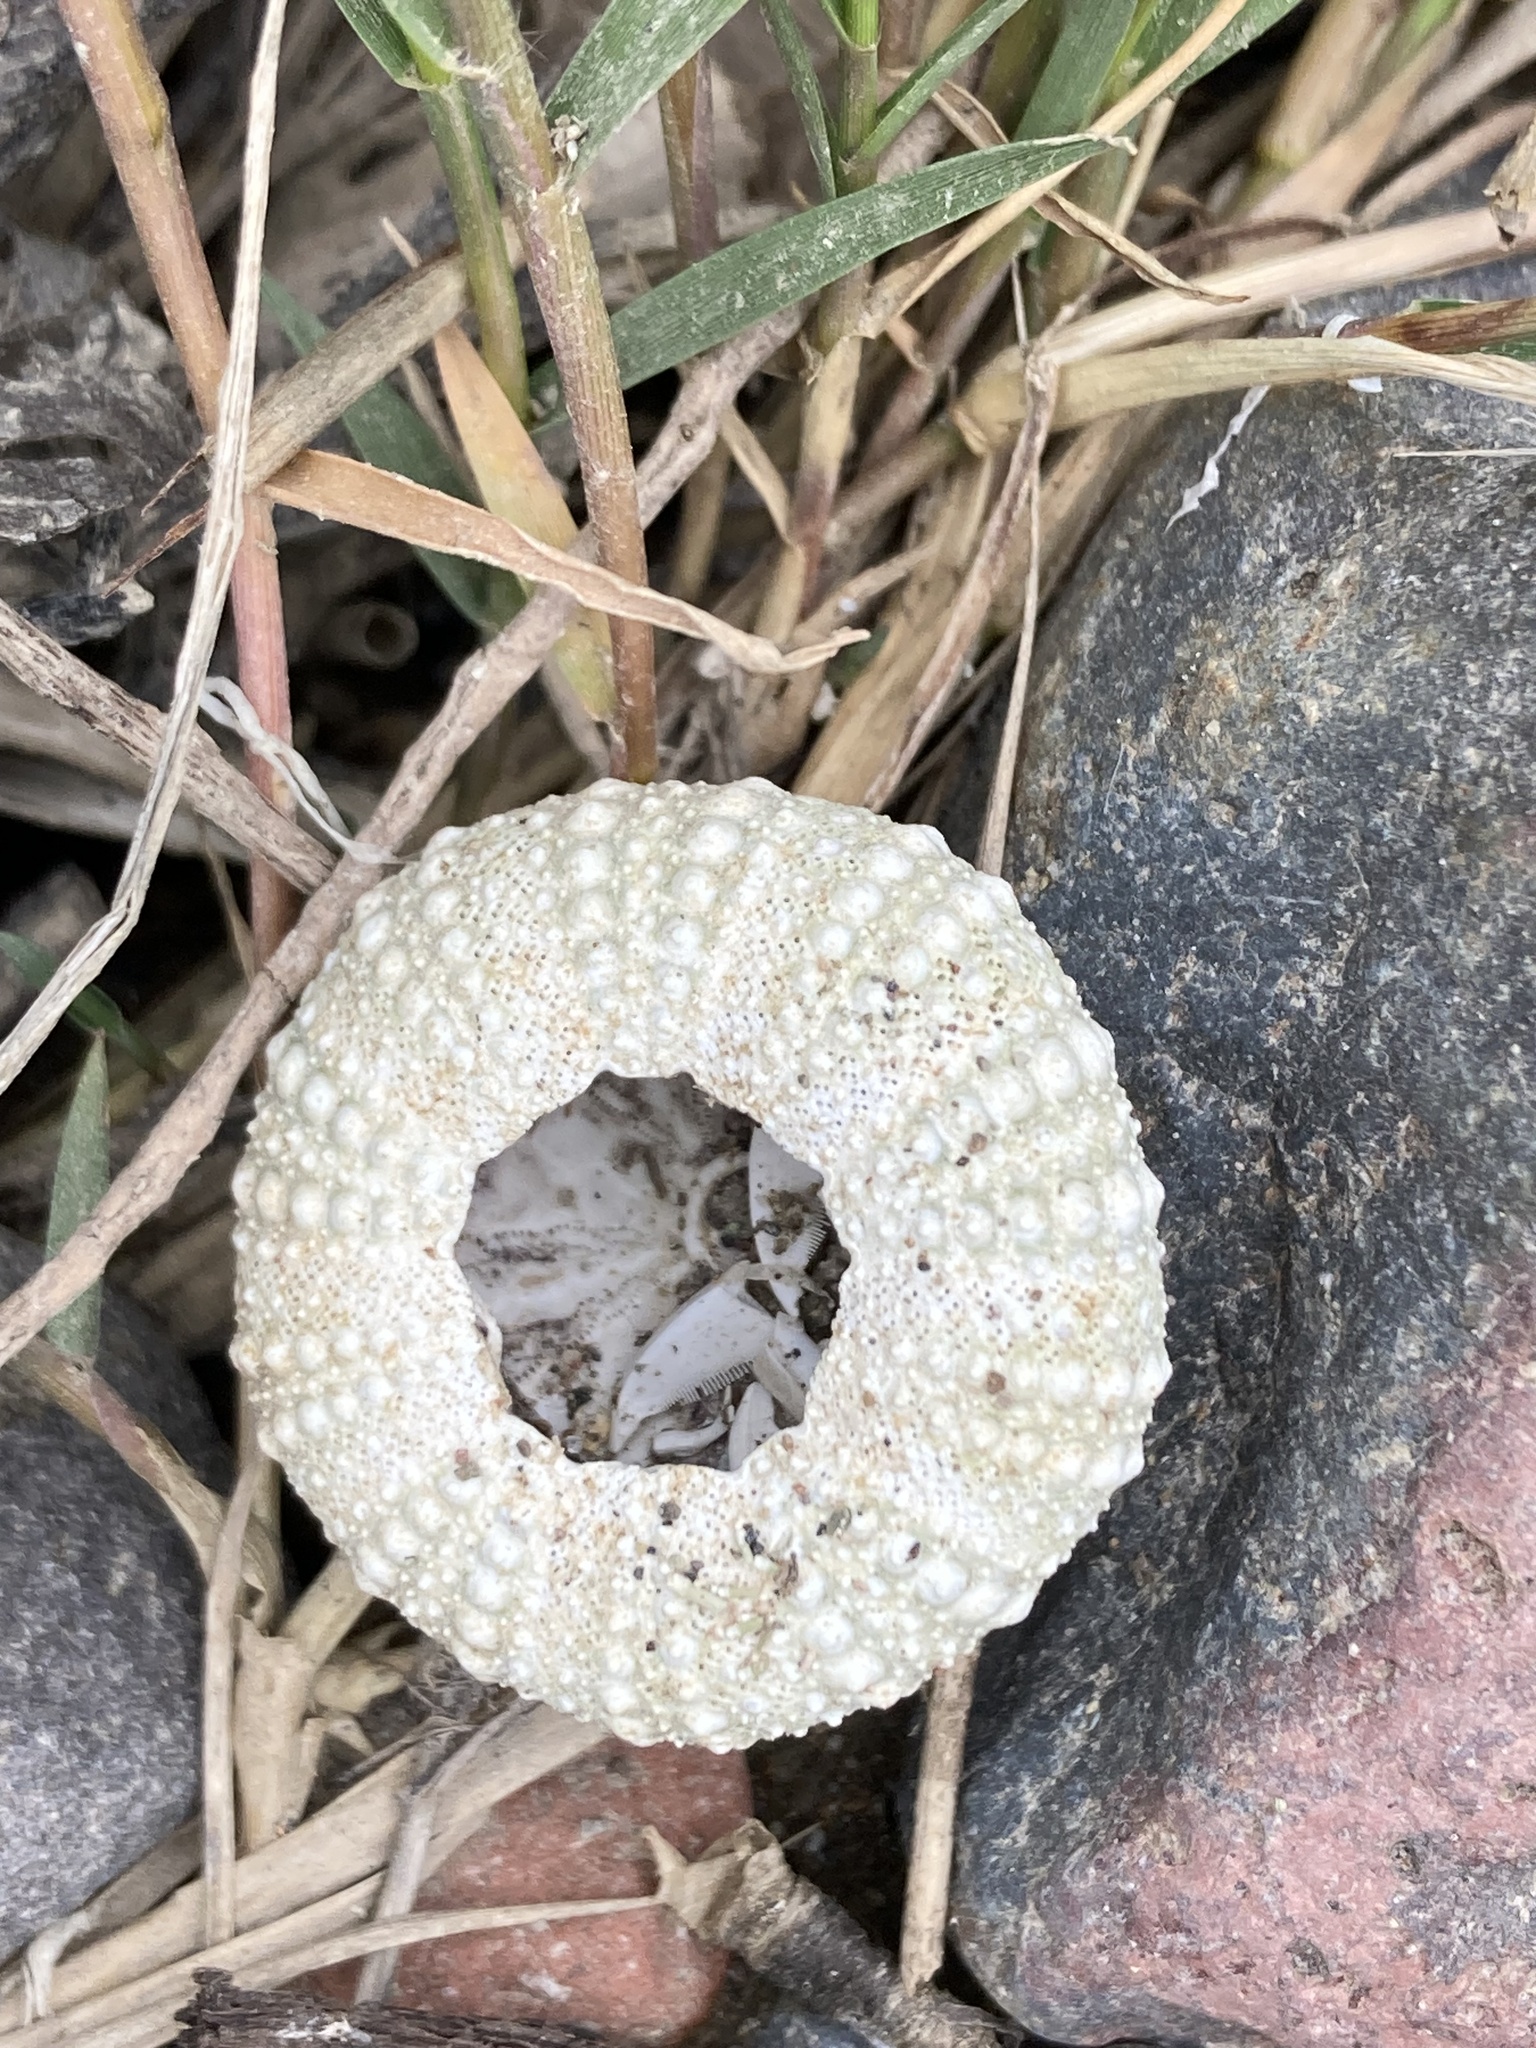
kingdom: Animalia
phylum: Echinodermata
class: Echinoidea
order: Camarodonta
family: Strongylocentrotidae
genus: Strongylocentrotus
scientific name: Strongylocentrotus purpuratus
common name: Purple sea urchin
